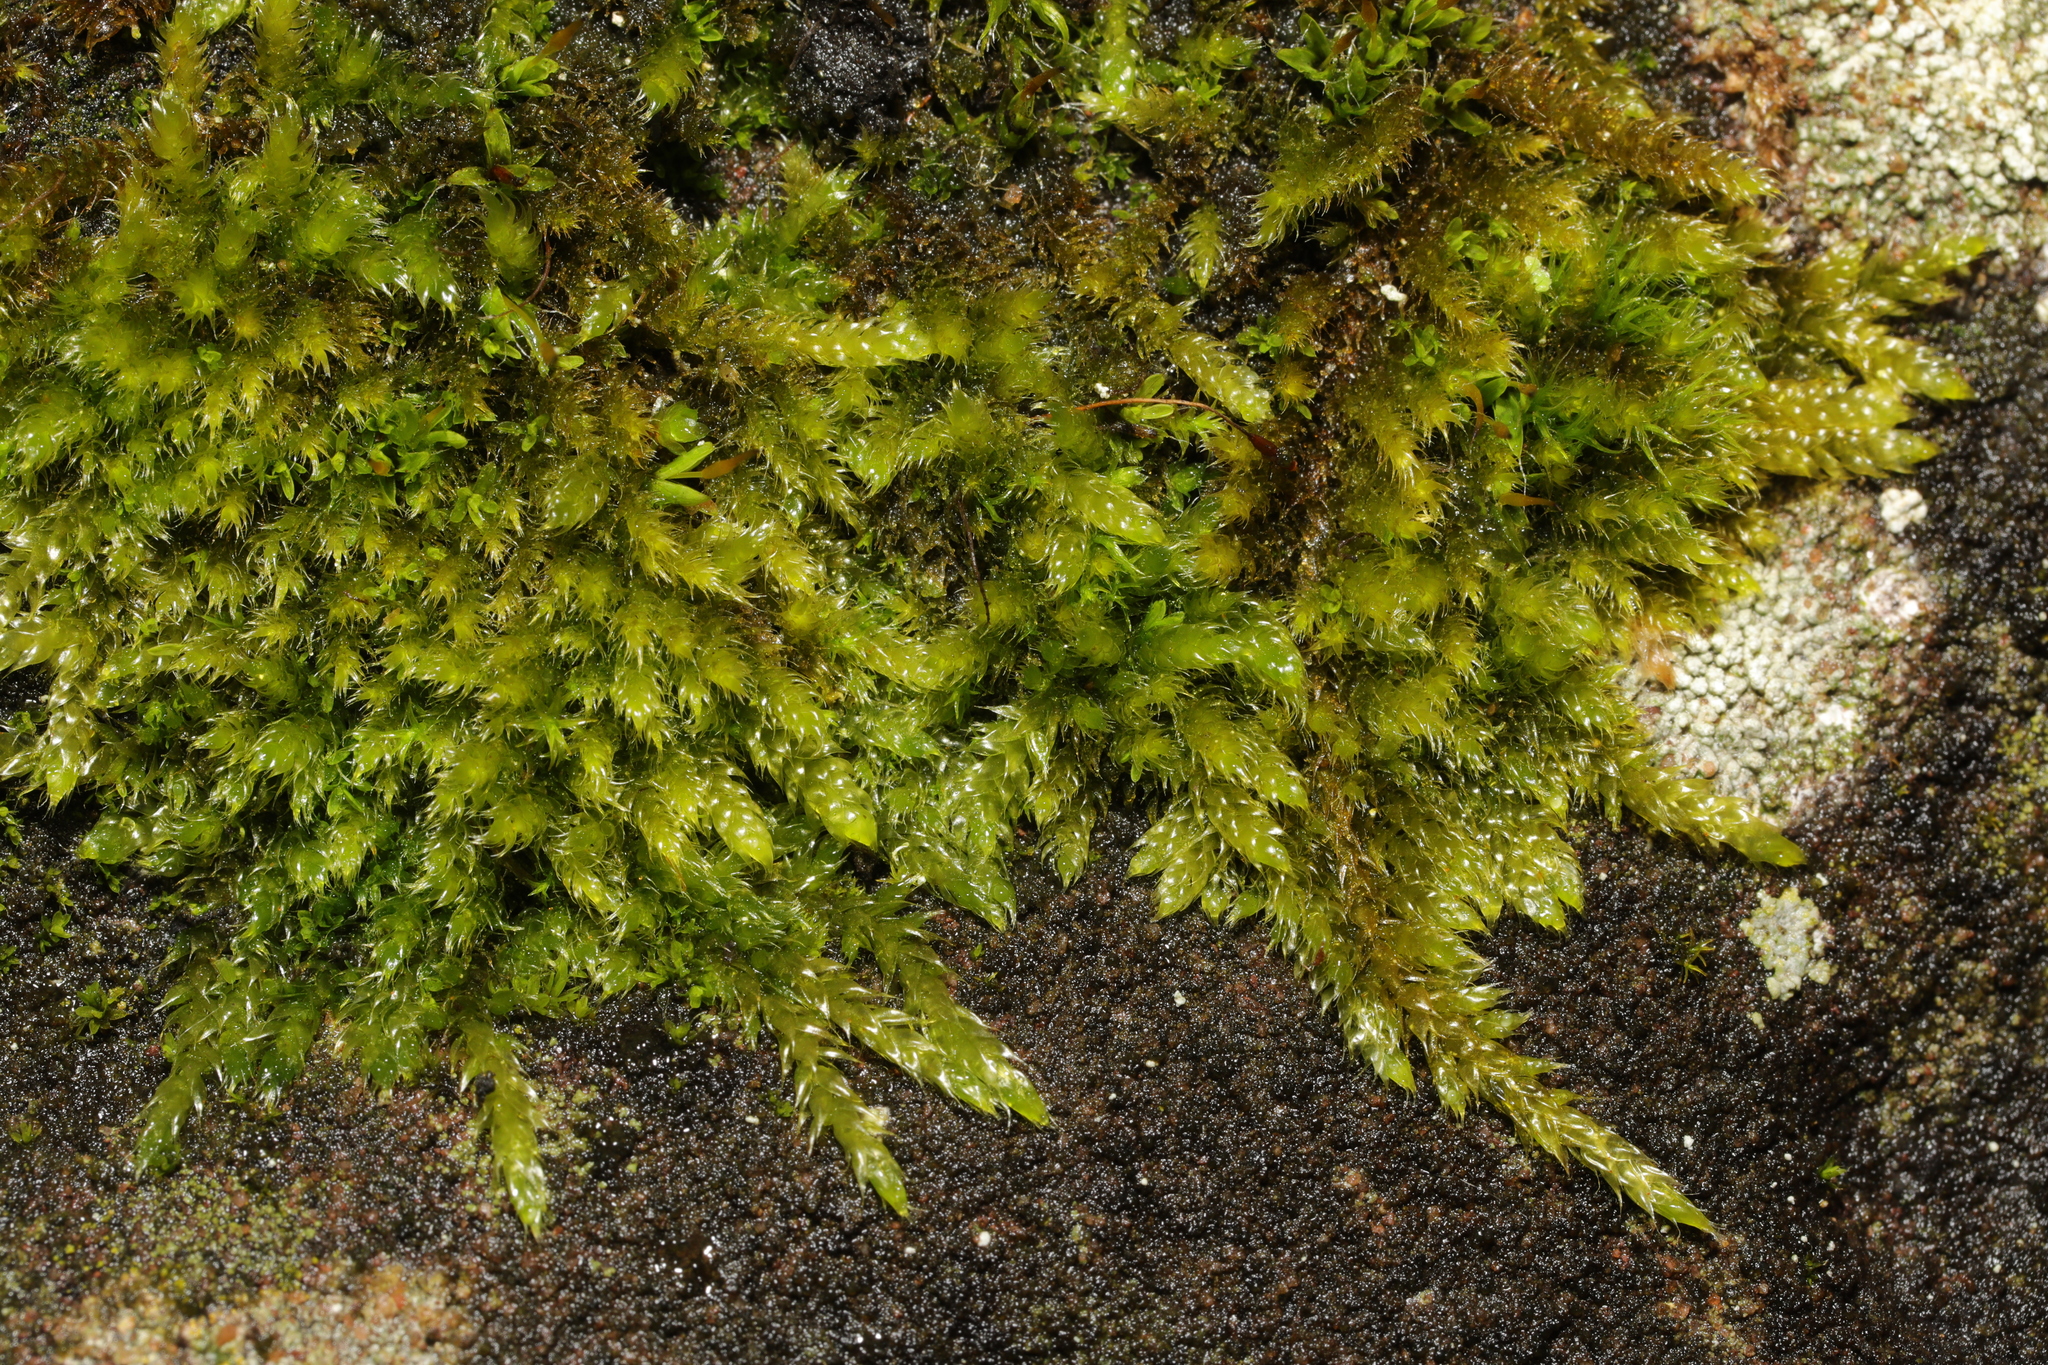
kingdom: Plantae
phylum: Bryophyta
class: Bryopsida
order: Hypnales
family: Hypnaceae
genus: Hypnum
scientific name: Hypnum cupressiforme
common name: Cypress-leaved plait-moss
